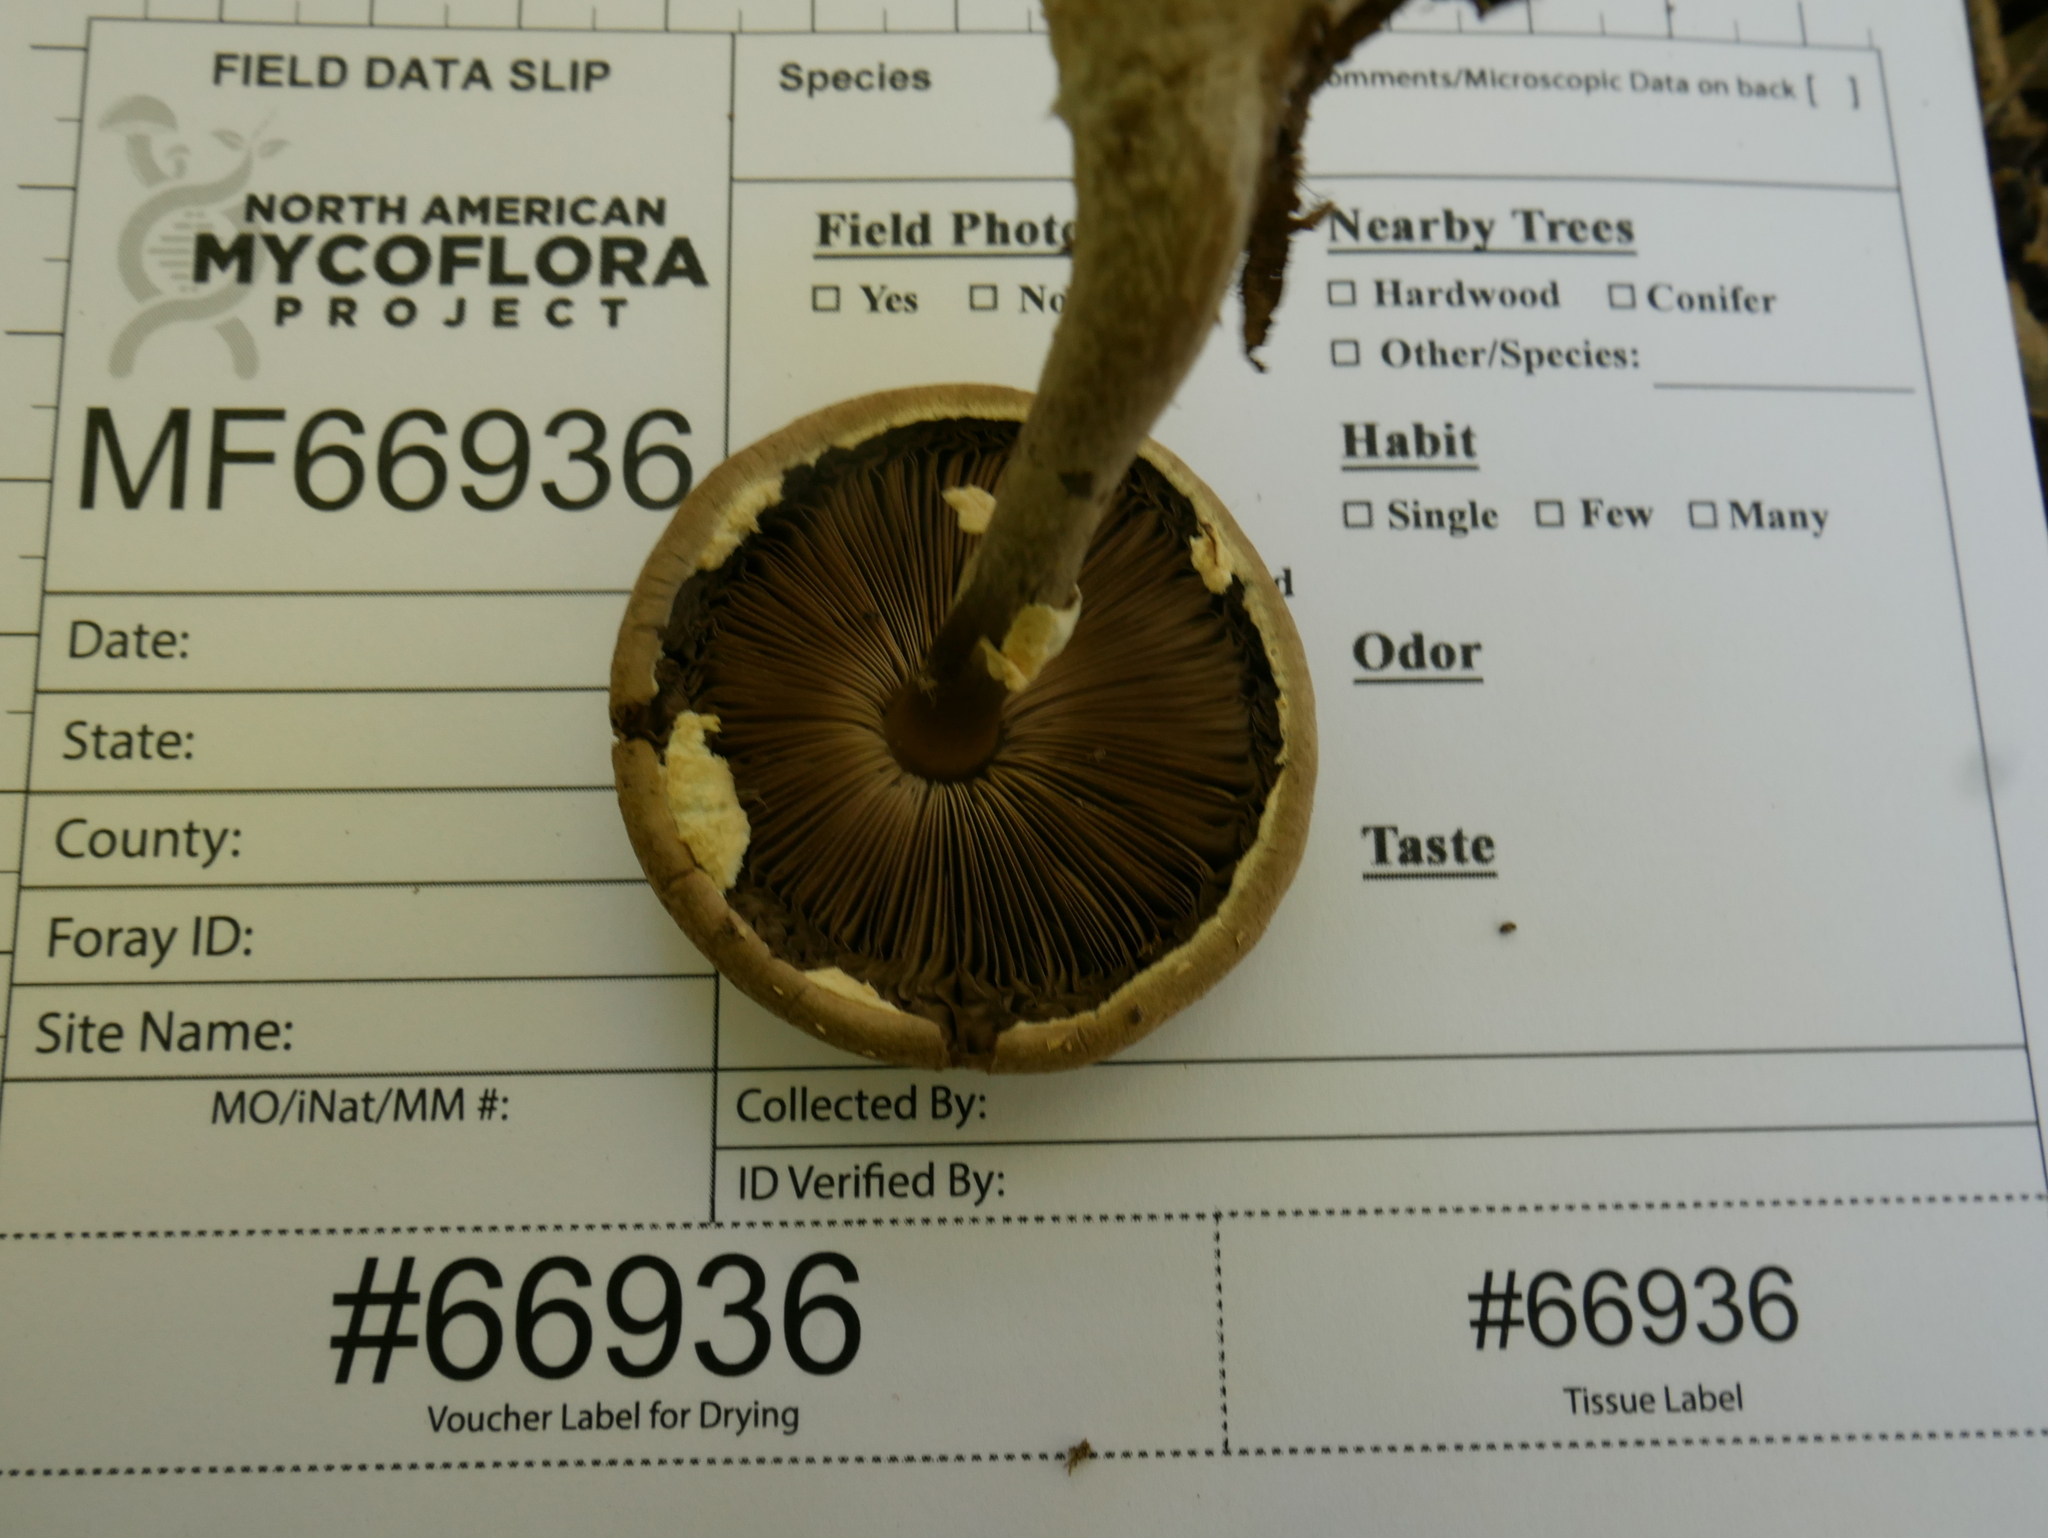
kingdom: Fungi
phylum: Basidiomycota
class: Agaricomycetes
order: Agaricales
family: Agaricaceae
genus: Agaricus
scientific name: Agaricus vinosobrunneofumidus
